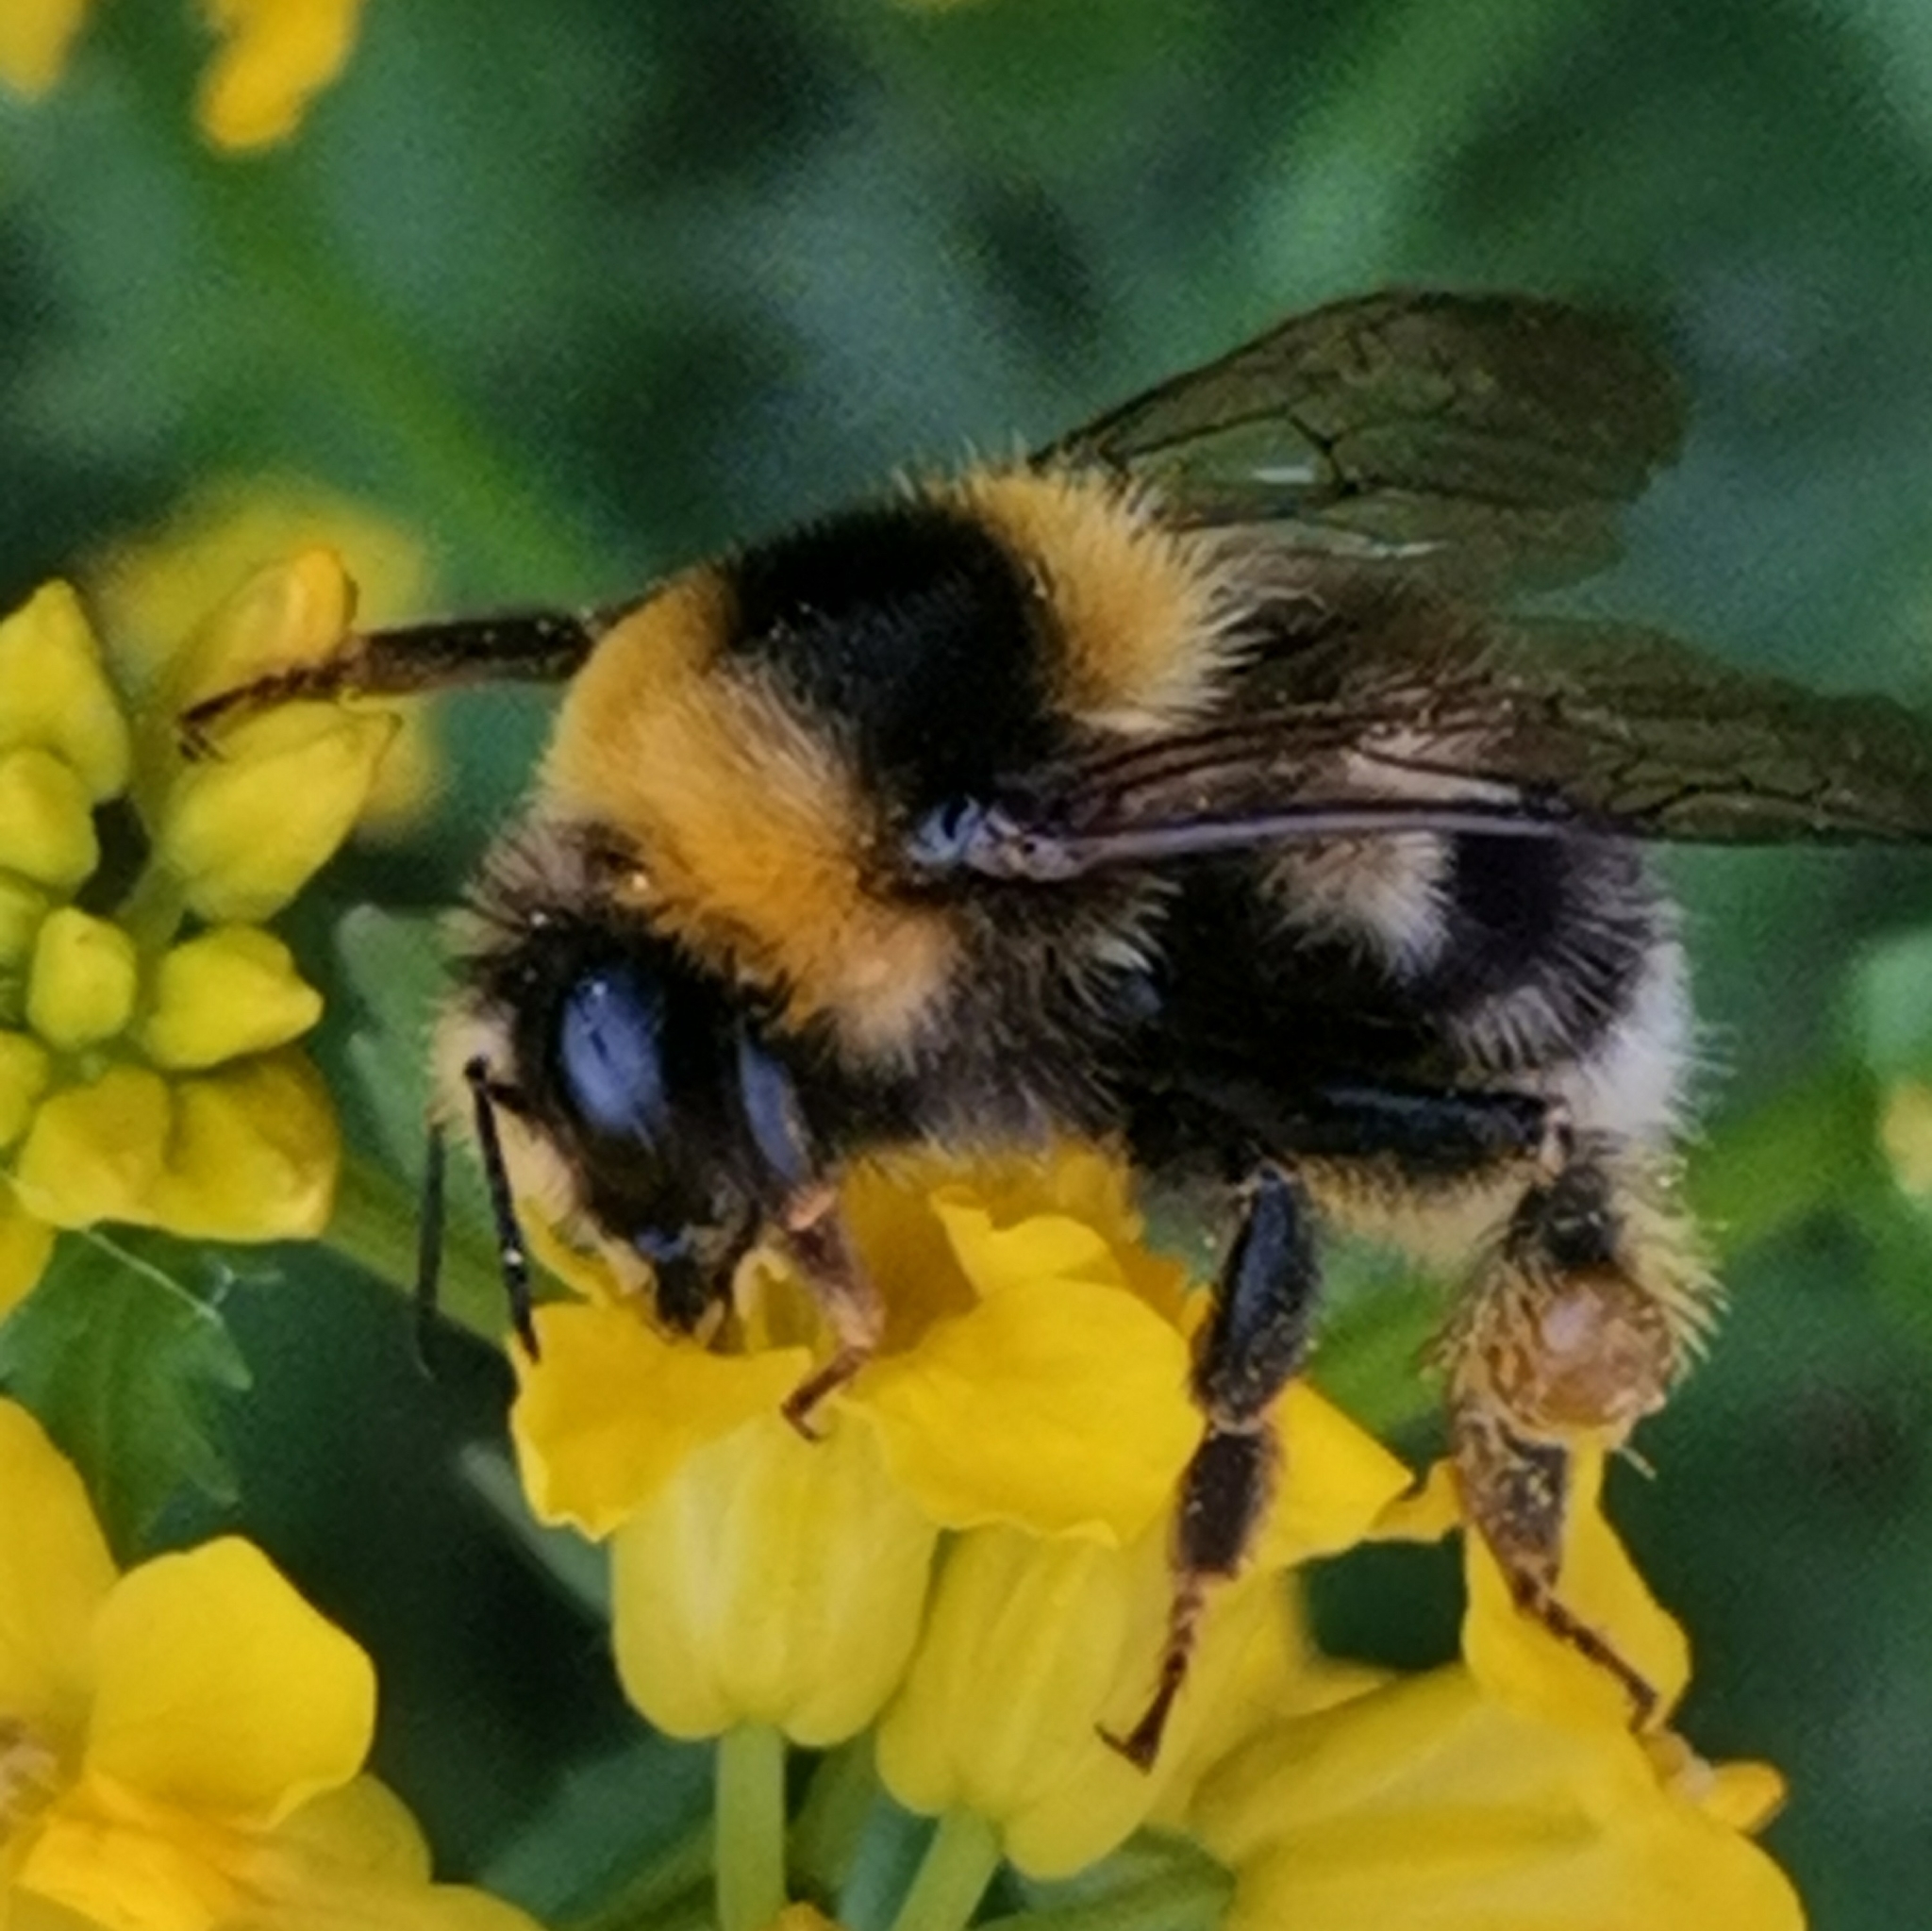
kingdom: Animalia
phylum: Arthropoda
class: Insecta
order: Hymenoptera
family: Apidae
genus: Bombus
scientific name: Bombus semenoviellus
